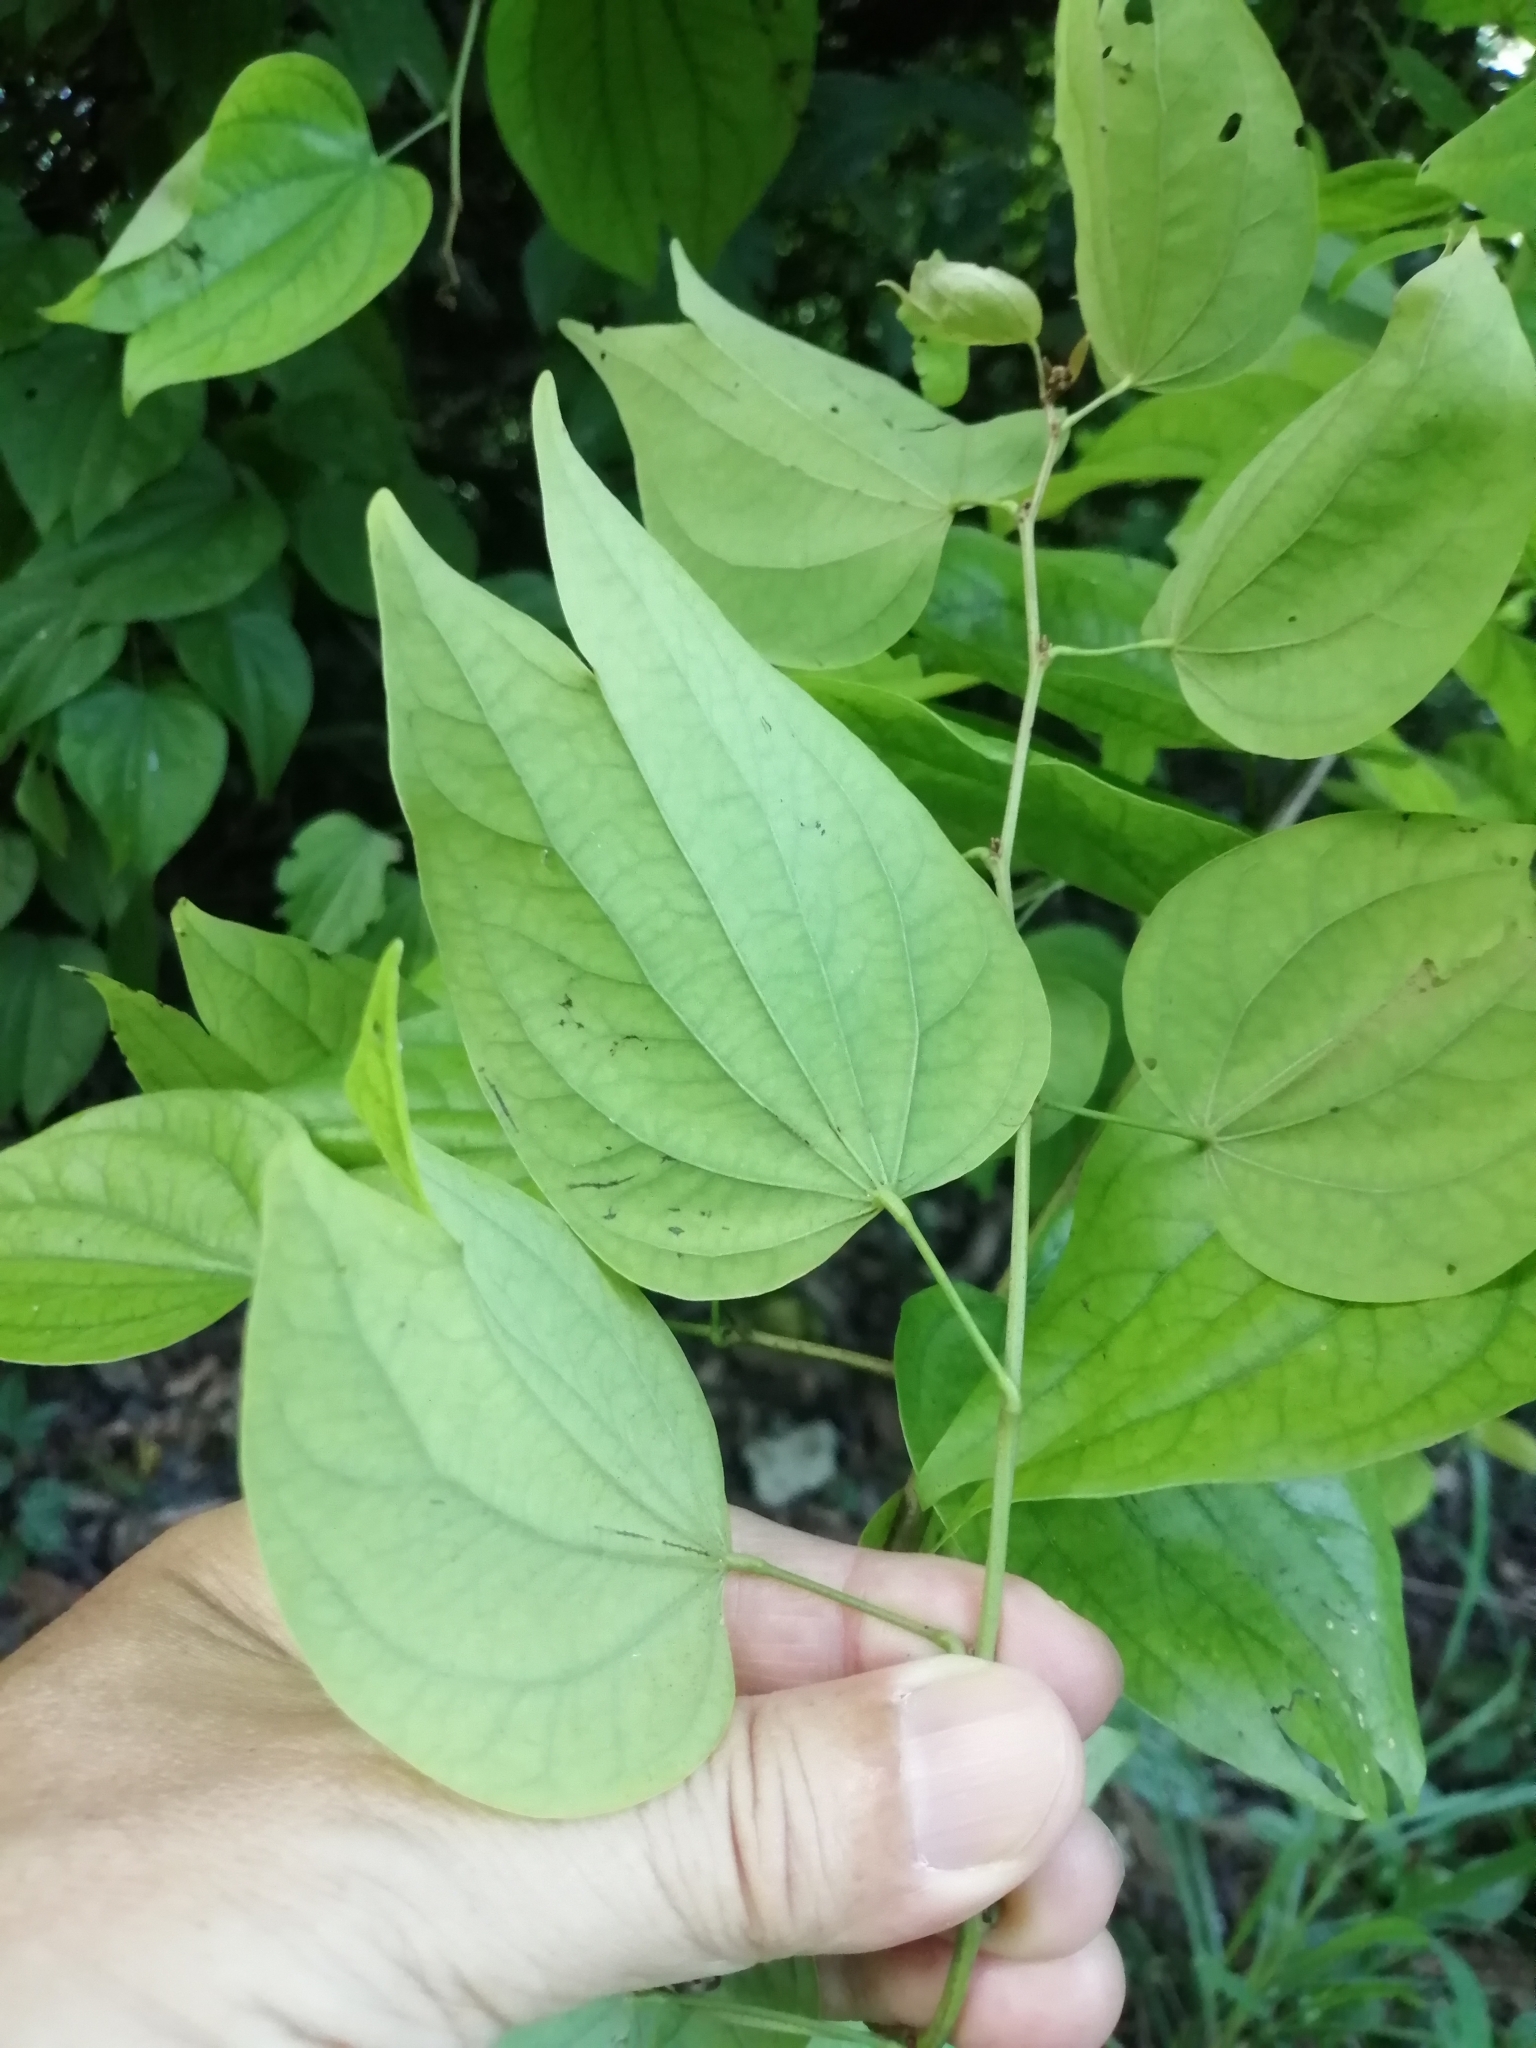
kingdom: Plantae
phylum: Tracheophyta
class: Magnoliopsida
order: Fabales
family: Fabaceae
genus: Phanera
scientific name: Phanera championii
